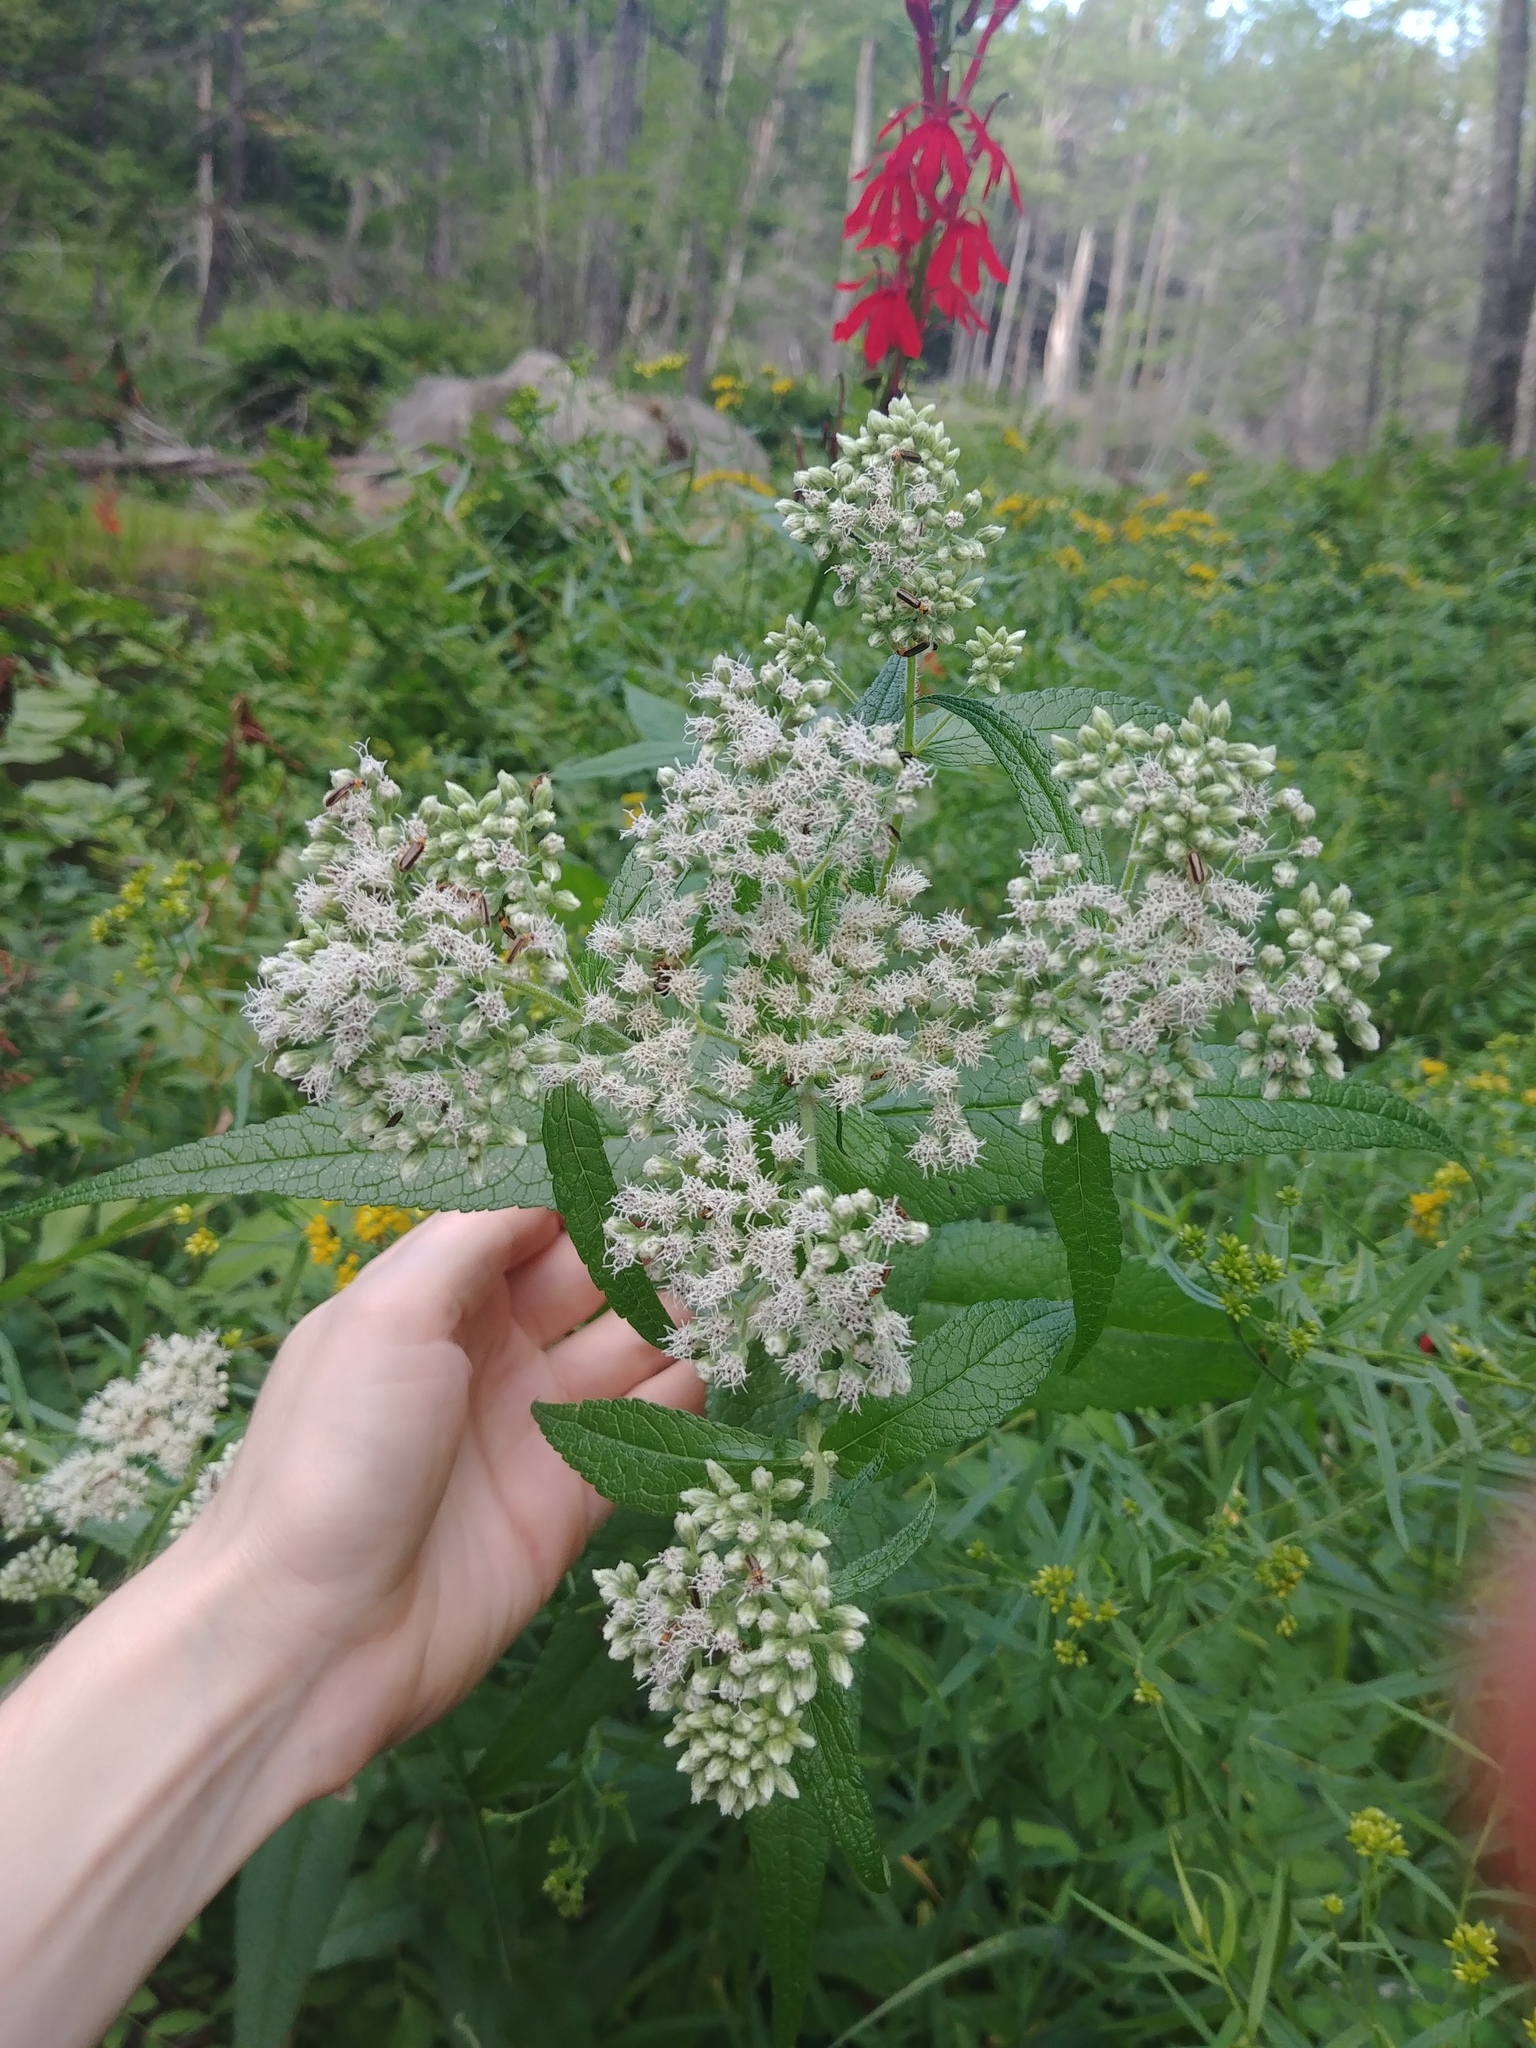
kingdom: Plantae
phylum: Tracheophyta
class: Magnoliopsida
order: Asterales
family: Asteraceae
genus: Eupatorium
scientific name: Eupatorium perfoliatum
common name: Boneset
